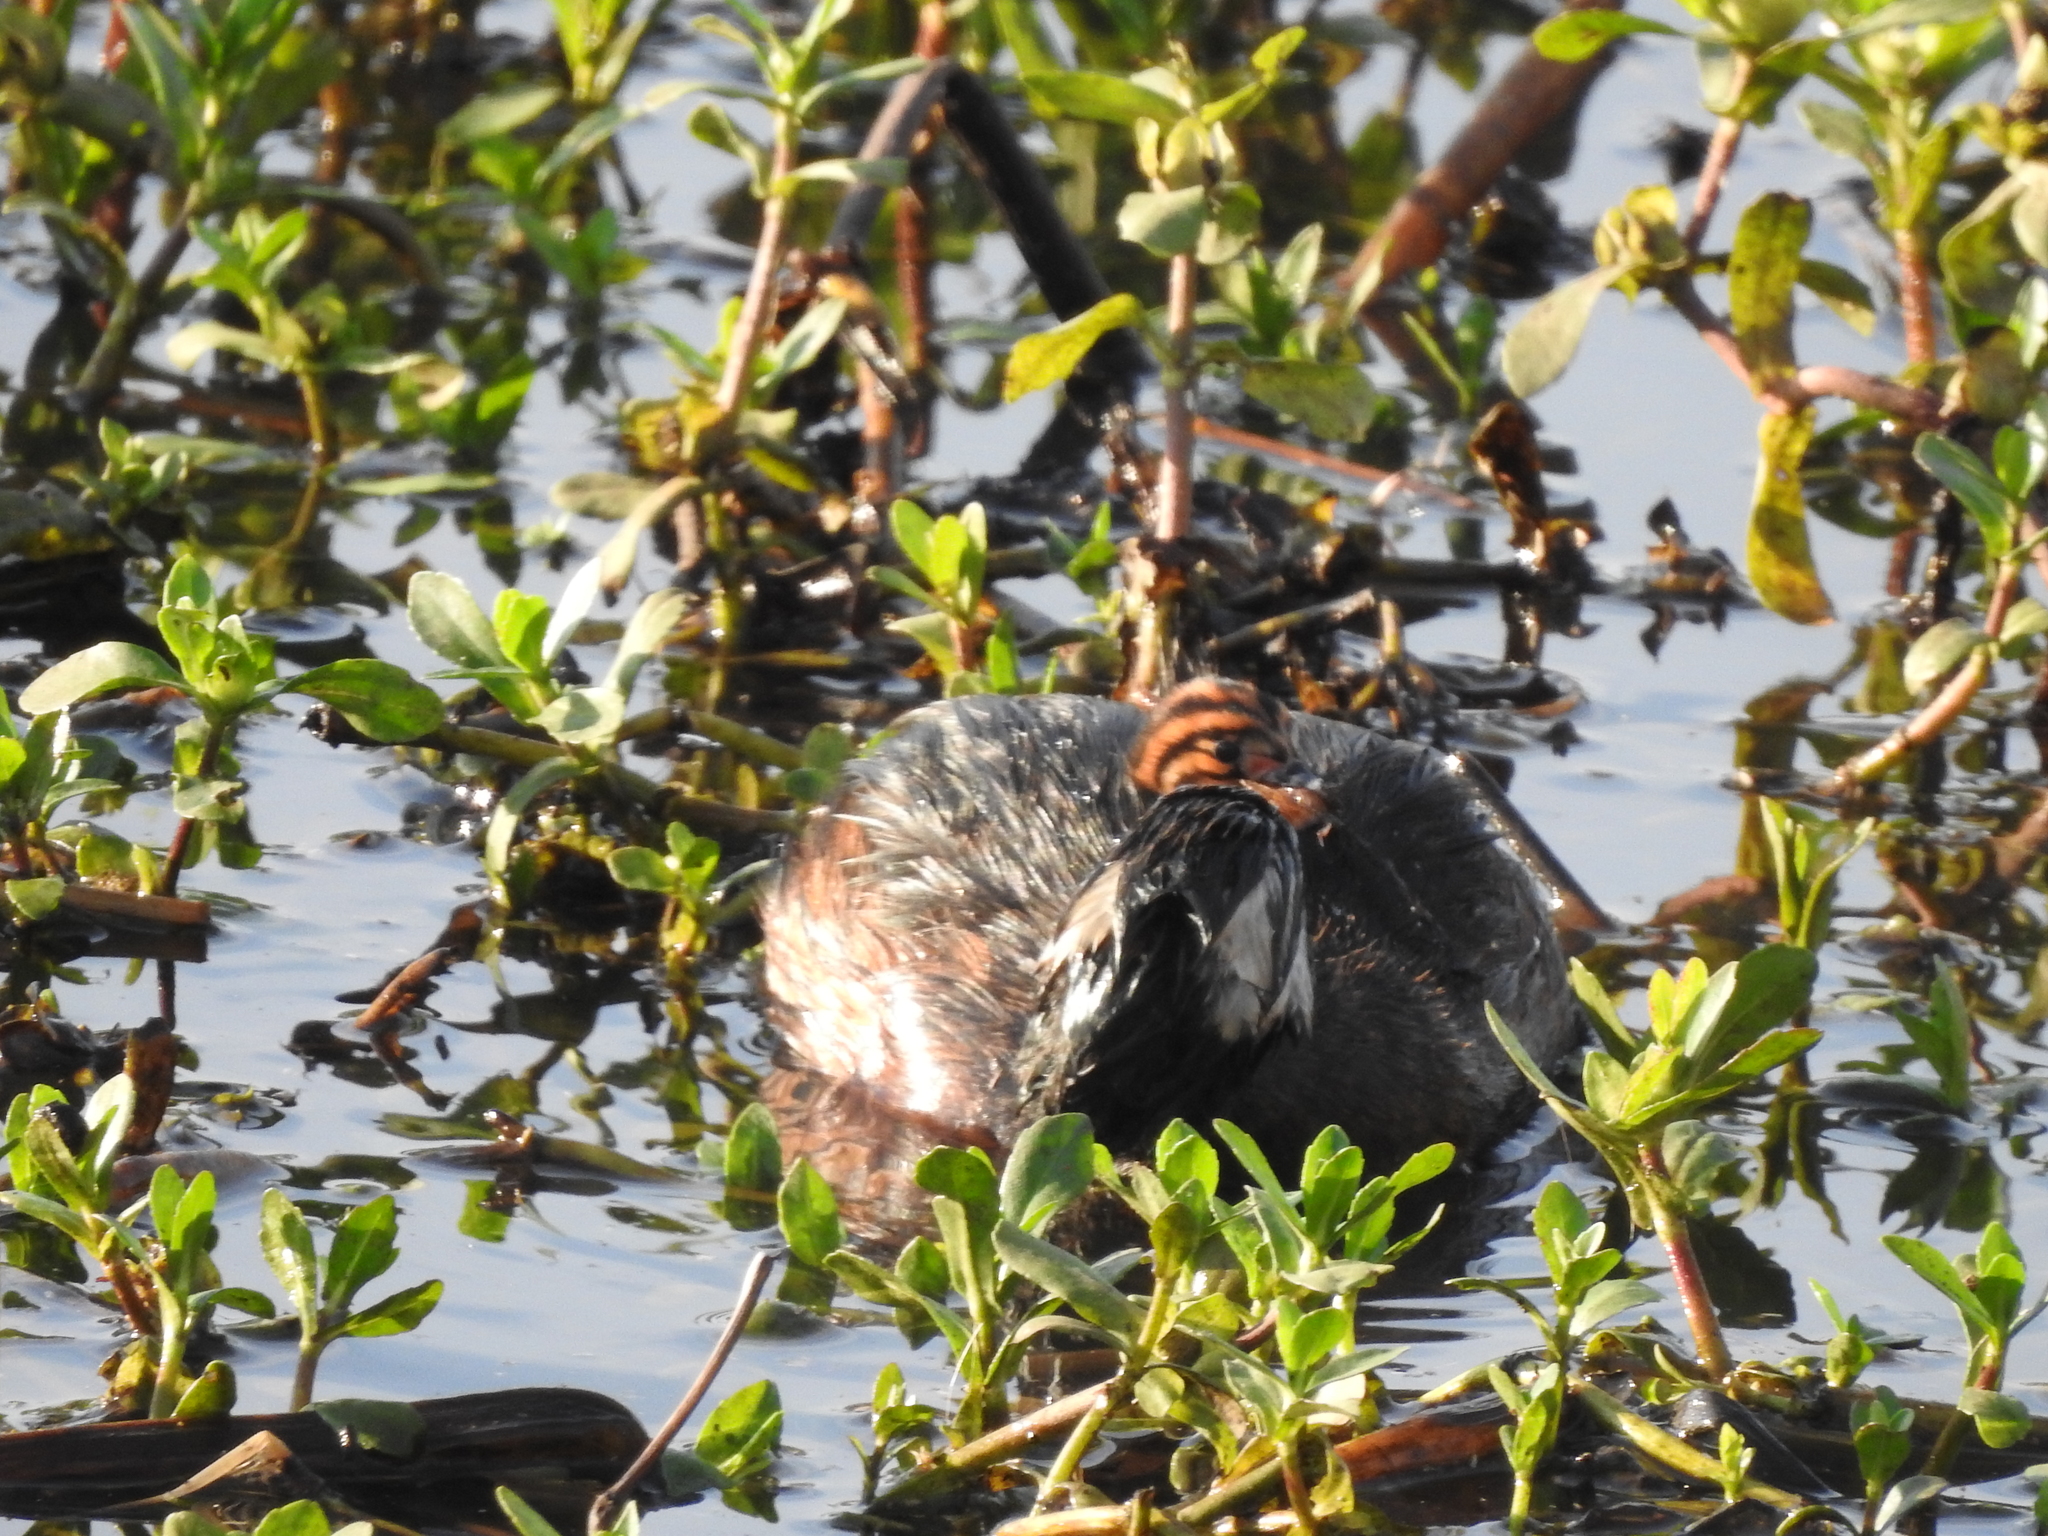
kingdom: Animalia
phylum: Chordata
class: Aves
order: Podicipediformes
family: Podicipedidae
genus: Rollandia
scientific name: Rollandia rolland
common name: White-tufted grebe
